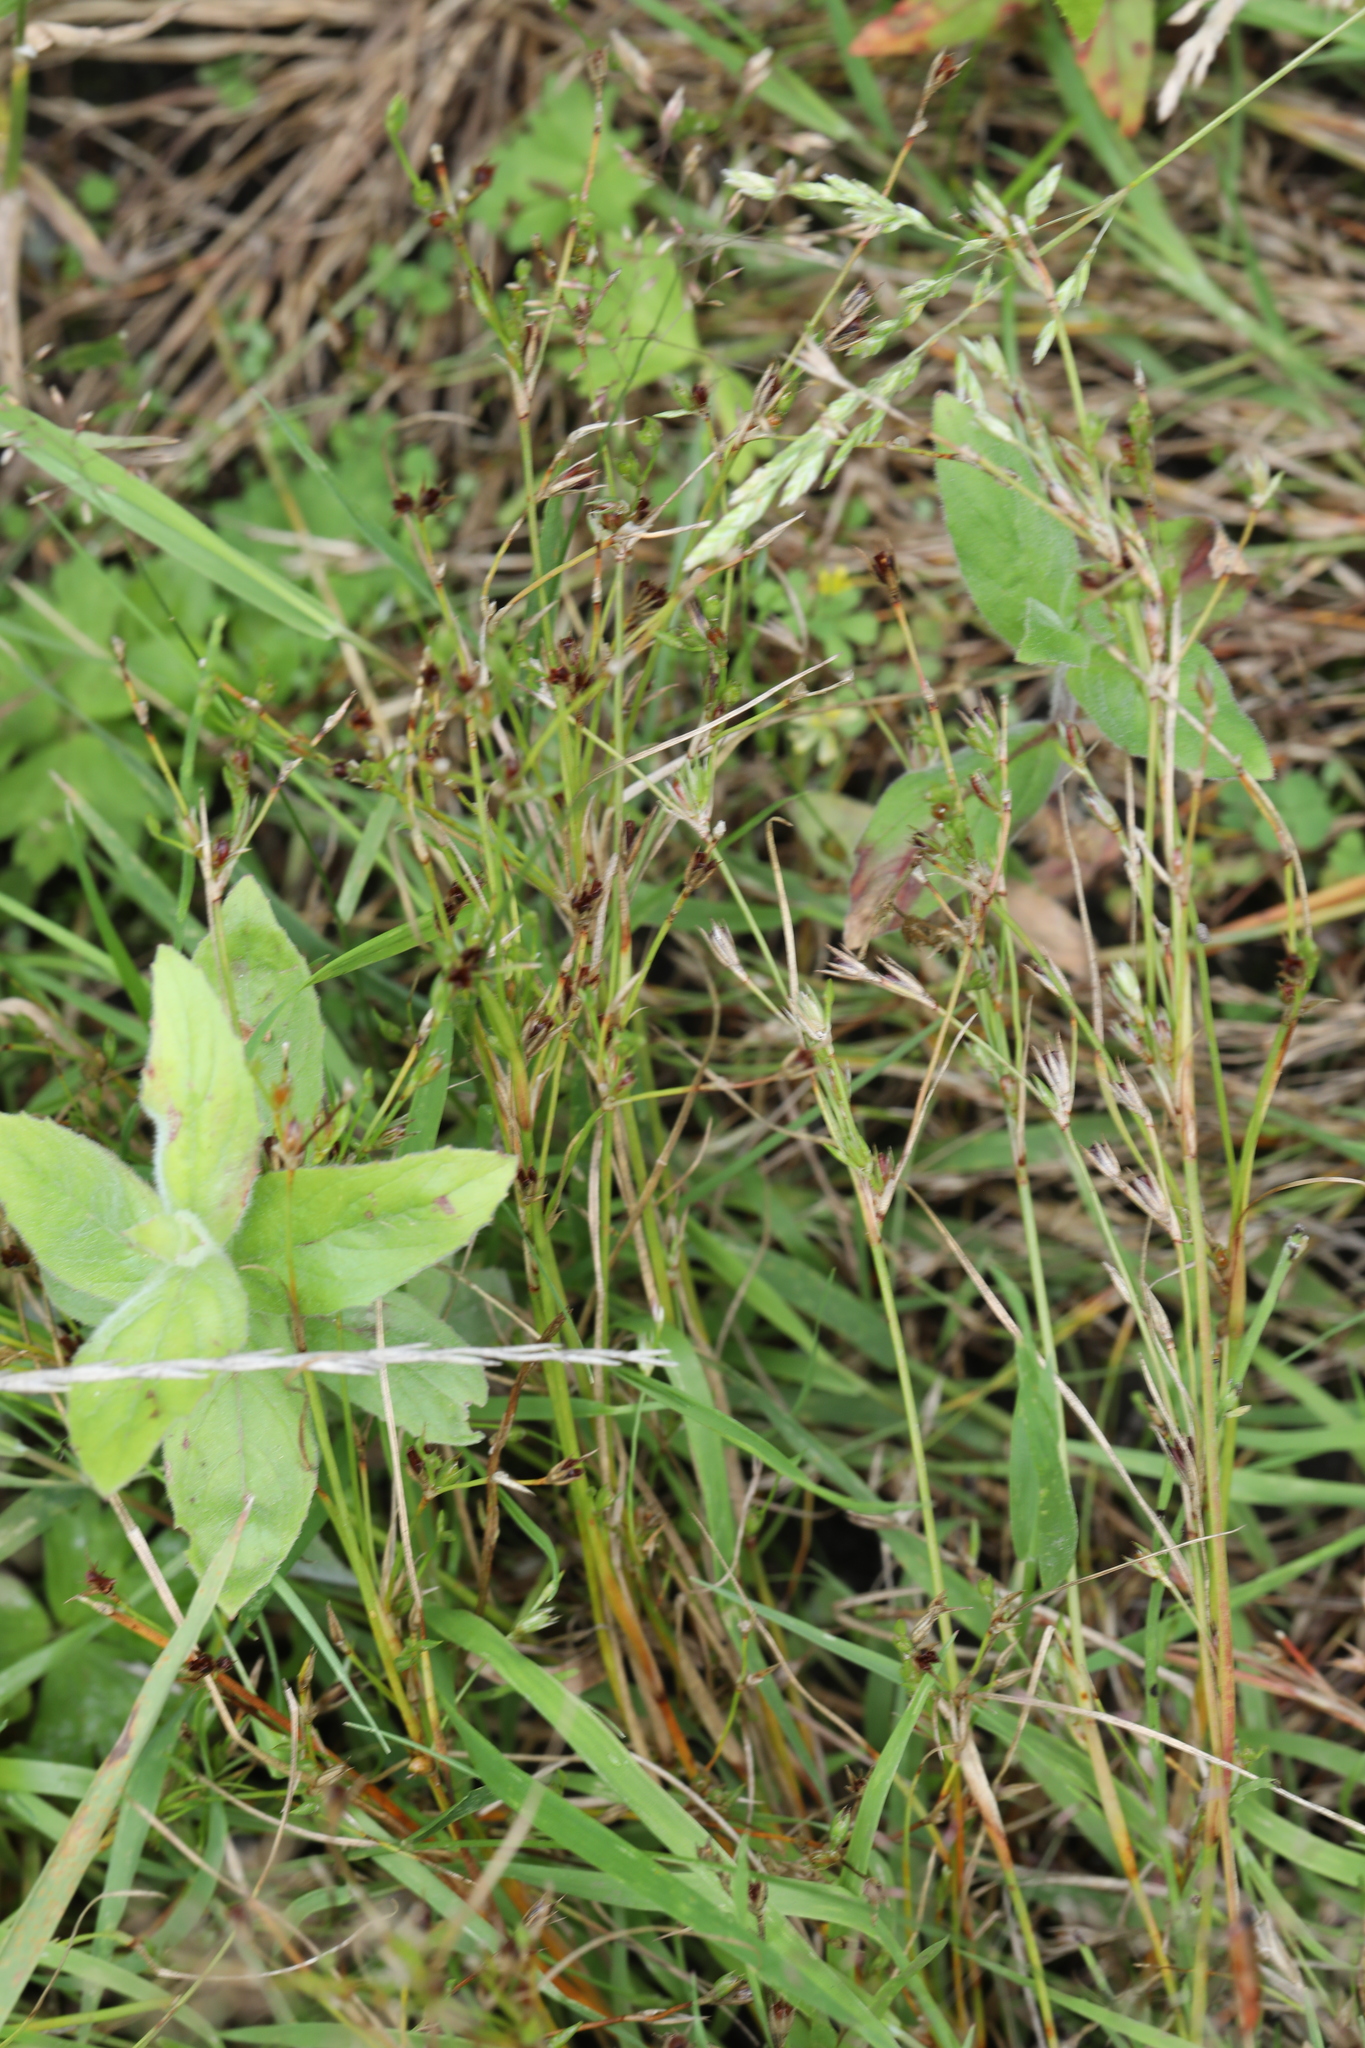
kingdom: Plantae
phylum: Tracheophyta
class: Liliopsida
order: Poales
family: Juncaceae
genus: Juncus
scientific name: Juncus bufonius
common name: Toad rush
